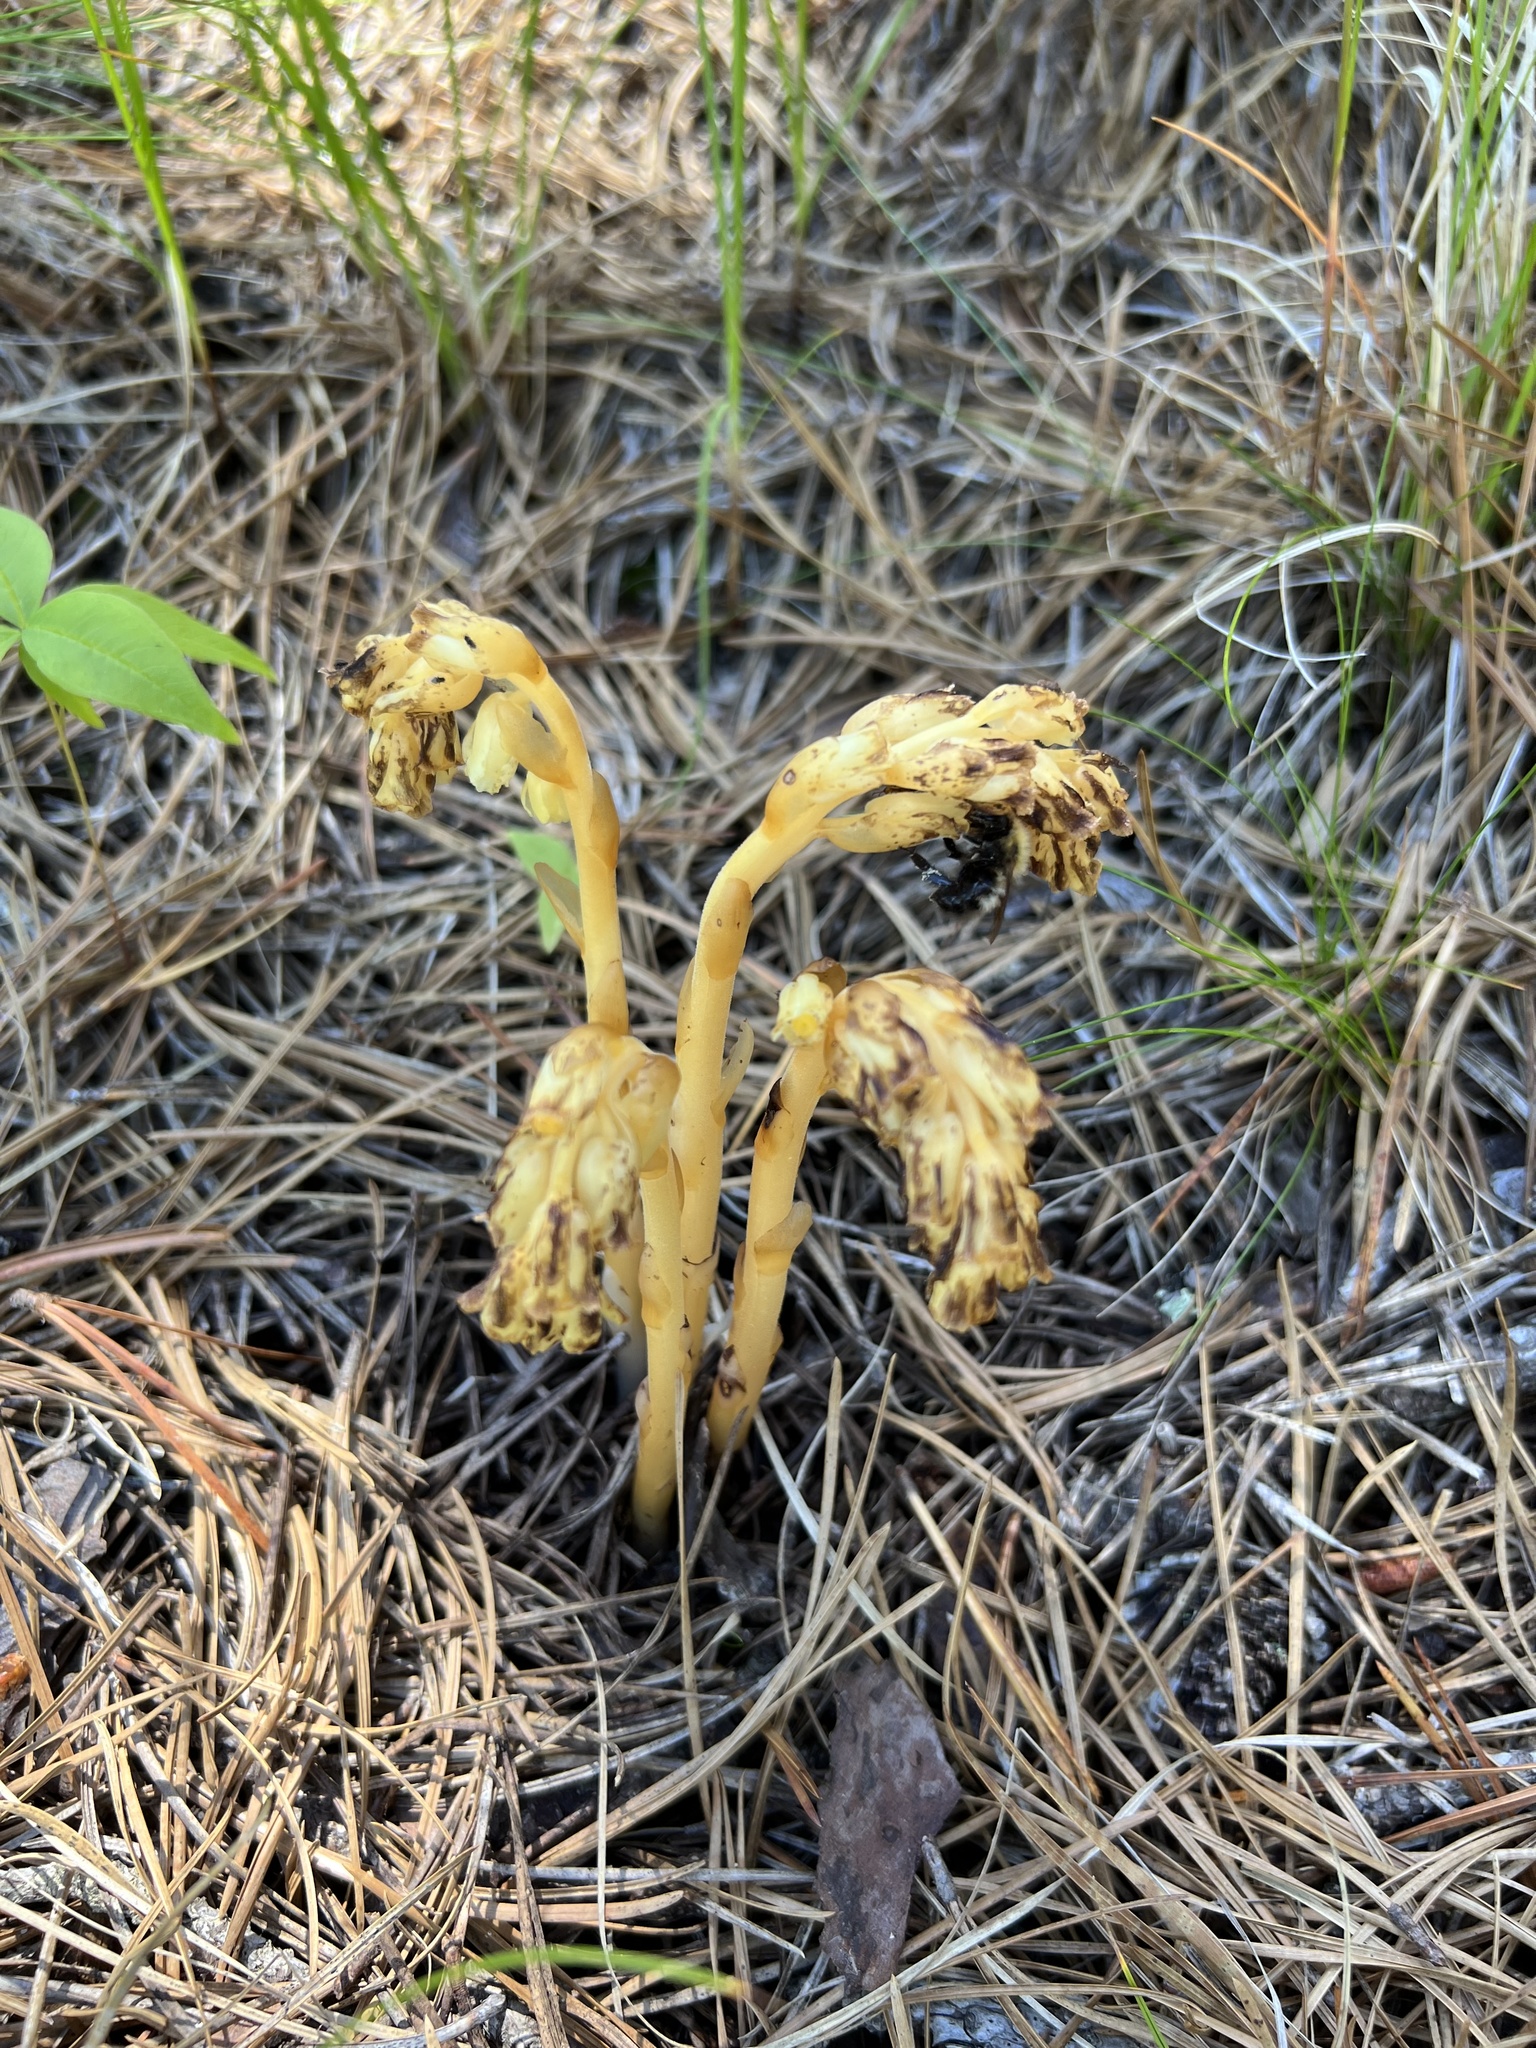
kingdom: Plantae
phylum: Tracheophyta
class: Magnoliopsida
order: Ericales
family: Ericaceae
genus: Hypopitys
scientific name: Hypopitys monotropa
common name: Yellow bird's-nest
